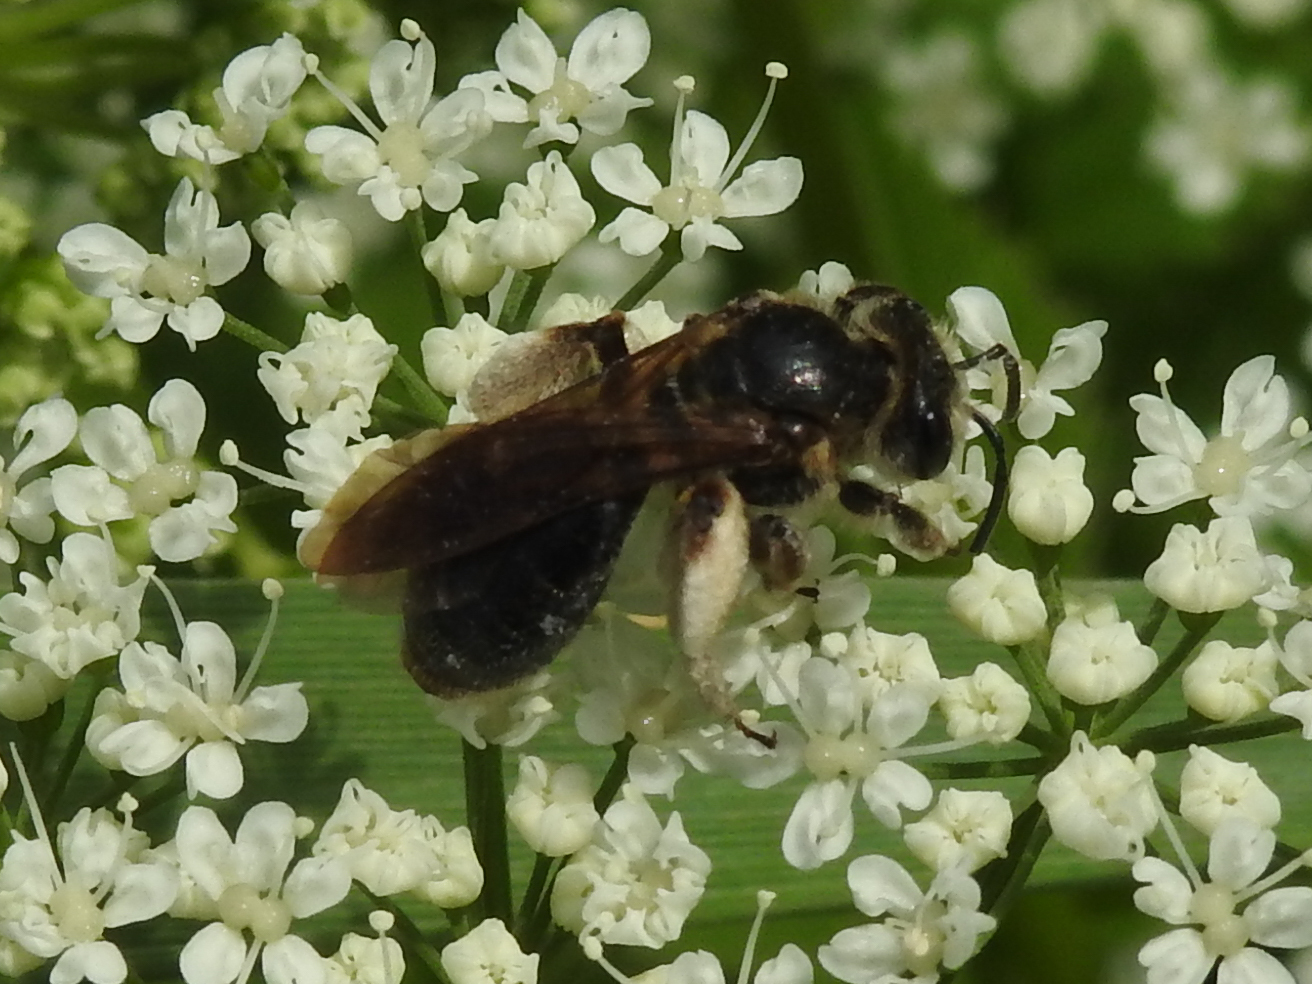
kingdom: Animalia
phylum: Arthropoda
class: Insecta
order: Hymenoptera
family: Andrenidae
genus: Andrena
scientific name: Andrena crataegi
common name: Hawthorn mining bee
